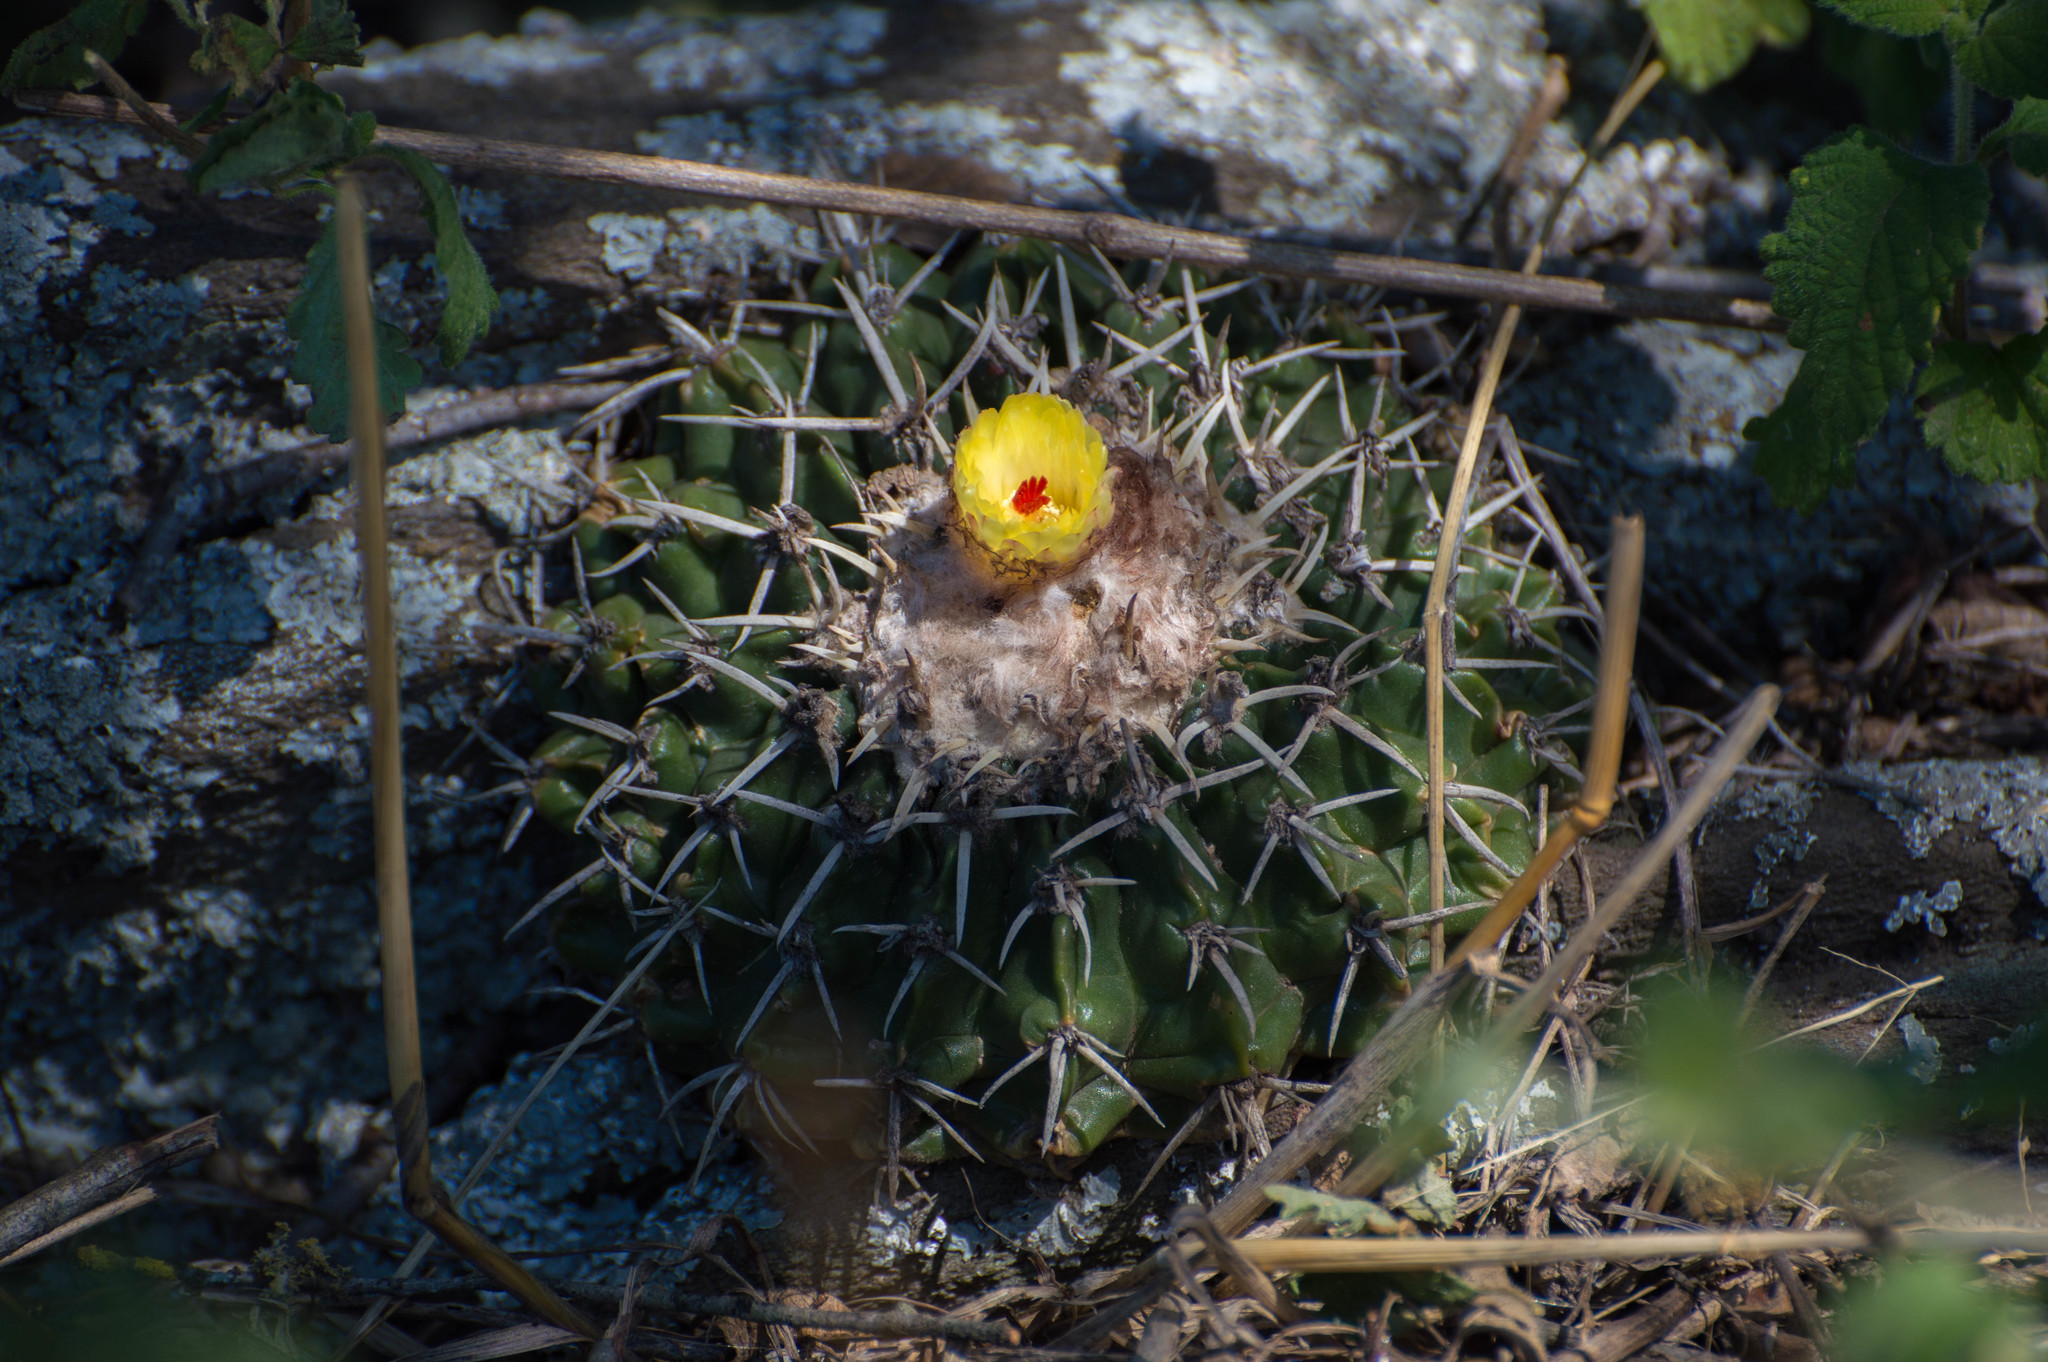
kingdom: Plantae
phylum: Tracheophyta
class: Magnoliopsida
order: Caryophyllales
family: Cactaceae
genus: Parodia
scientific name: Parodia erinacea
